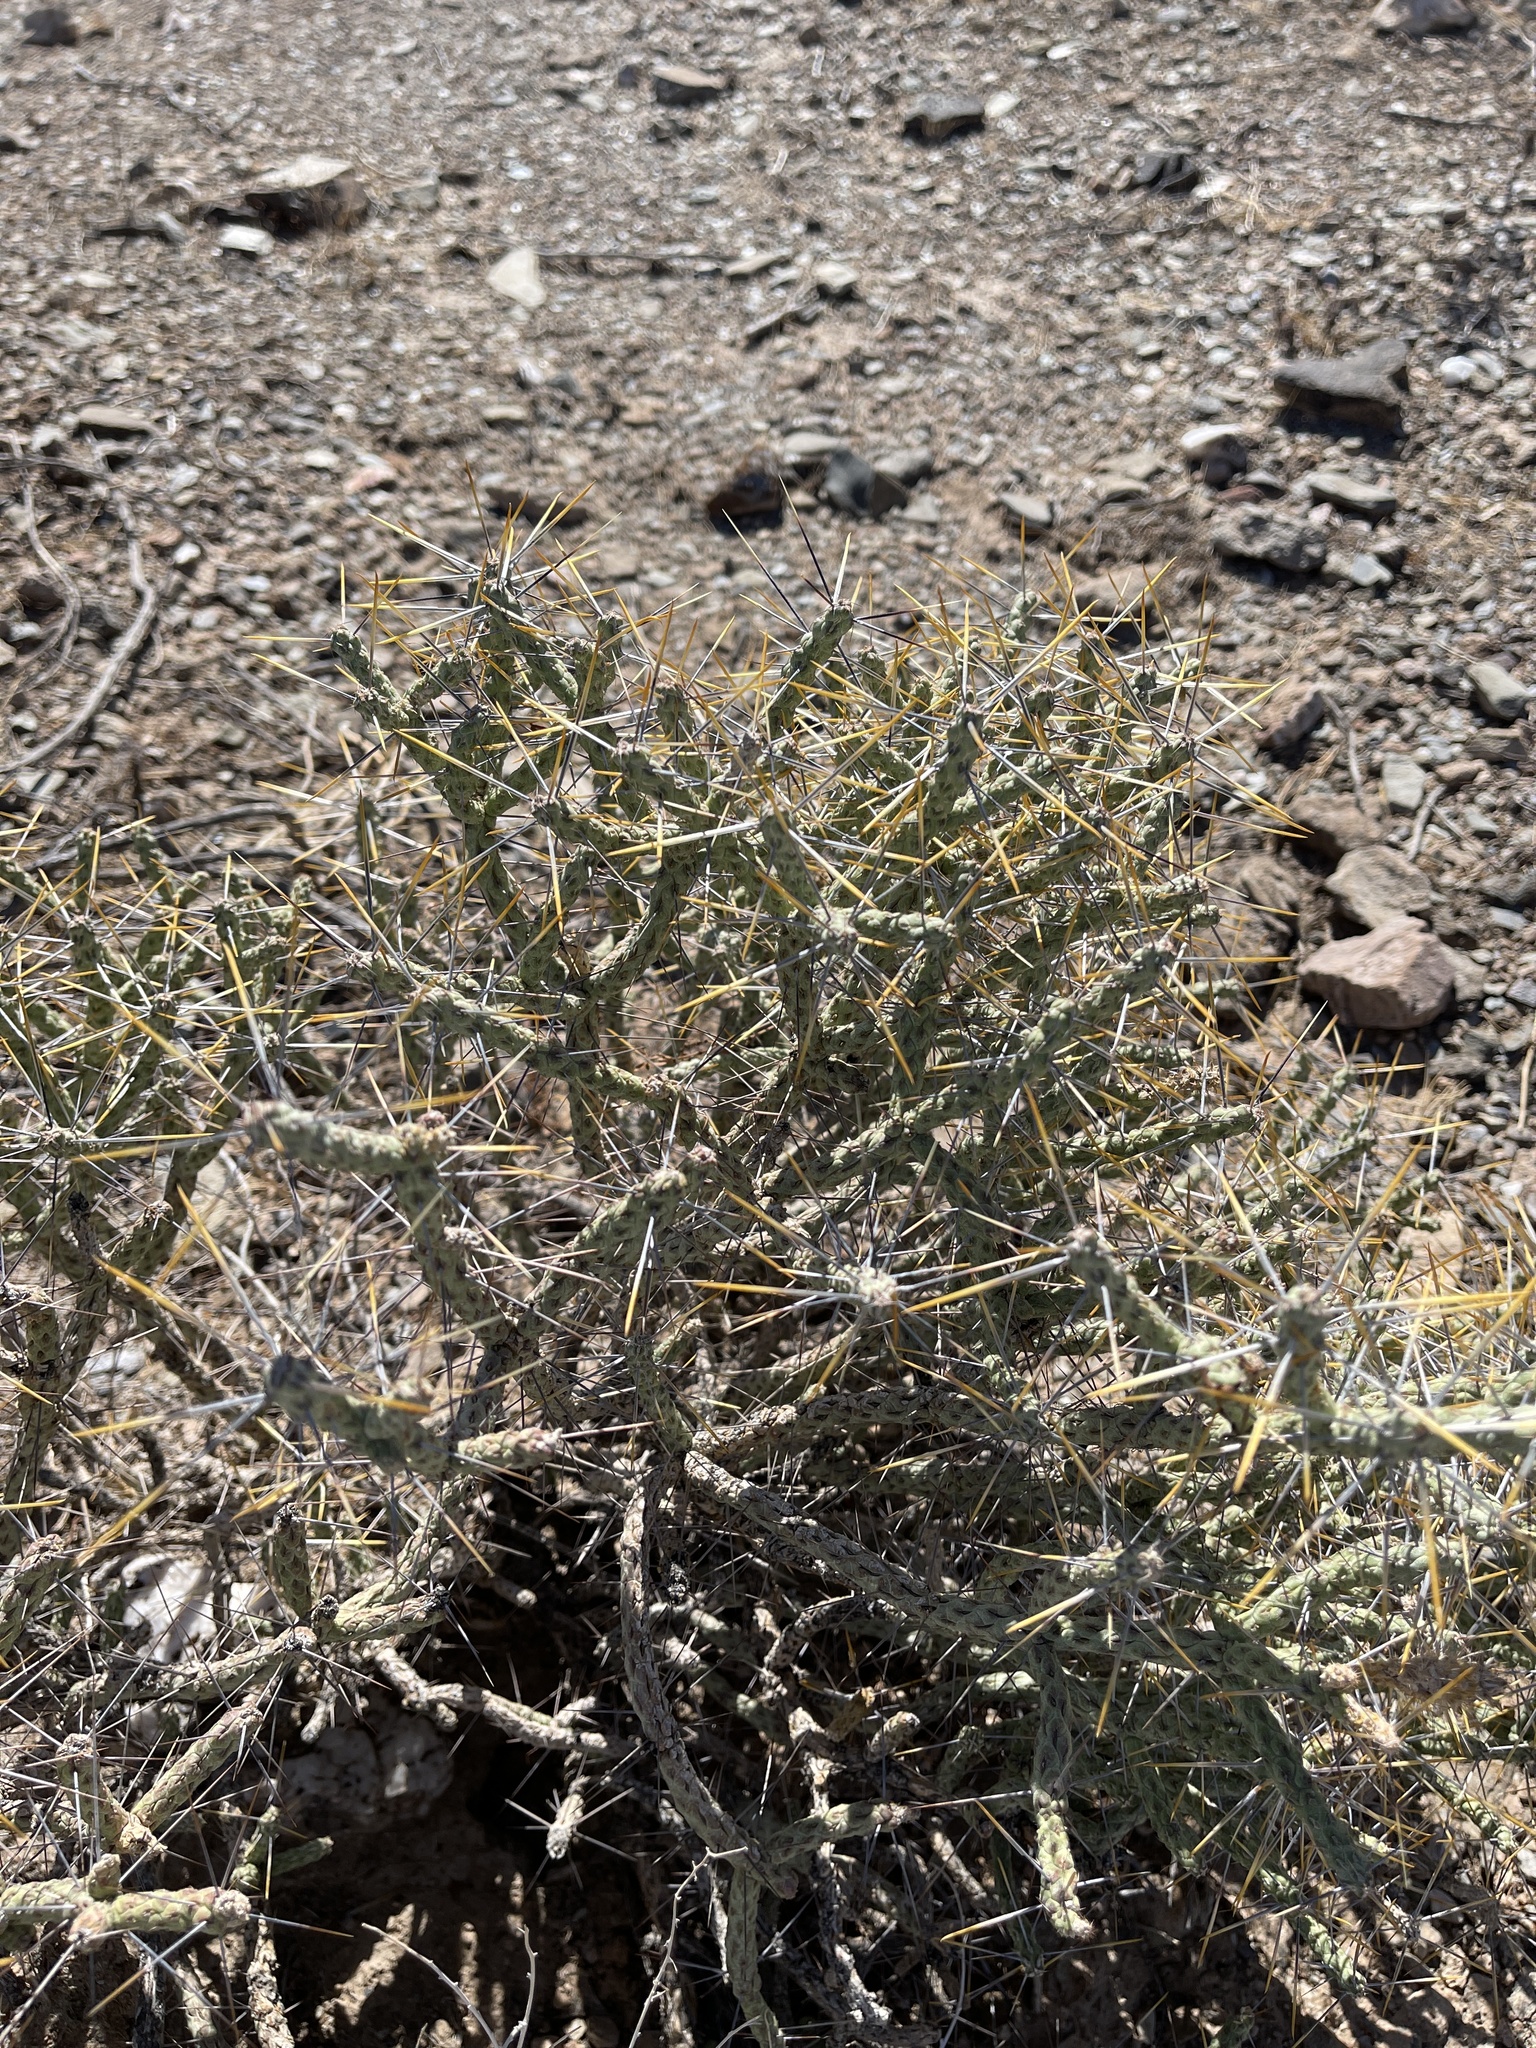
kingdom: Plantae
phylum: Tracheophyta
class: Magnoliopsida
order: Caryophyllales
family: Cactaceae
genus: Cylindropuntia
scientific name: Cylindropuntia ramosissima
